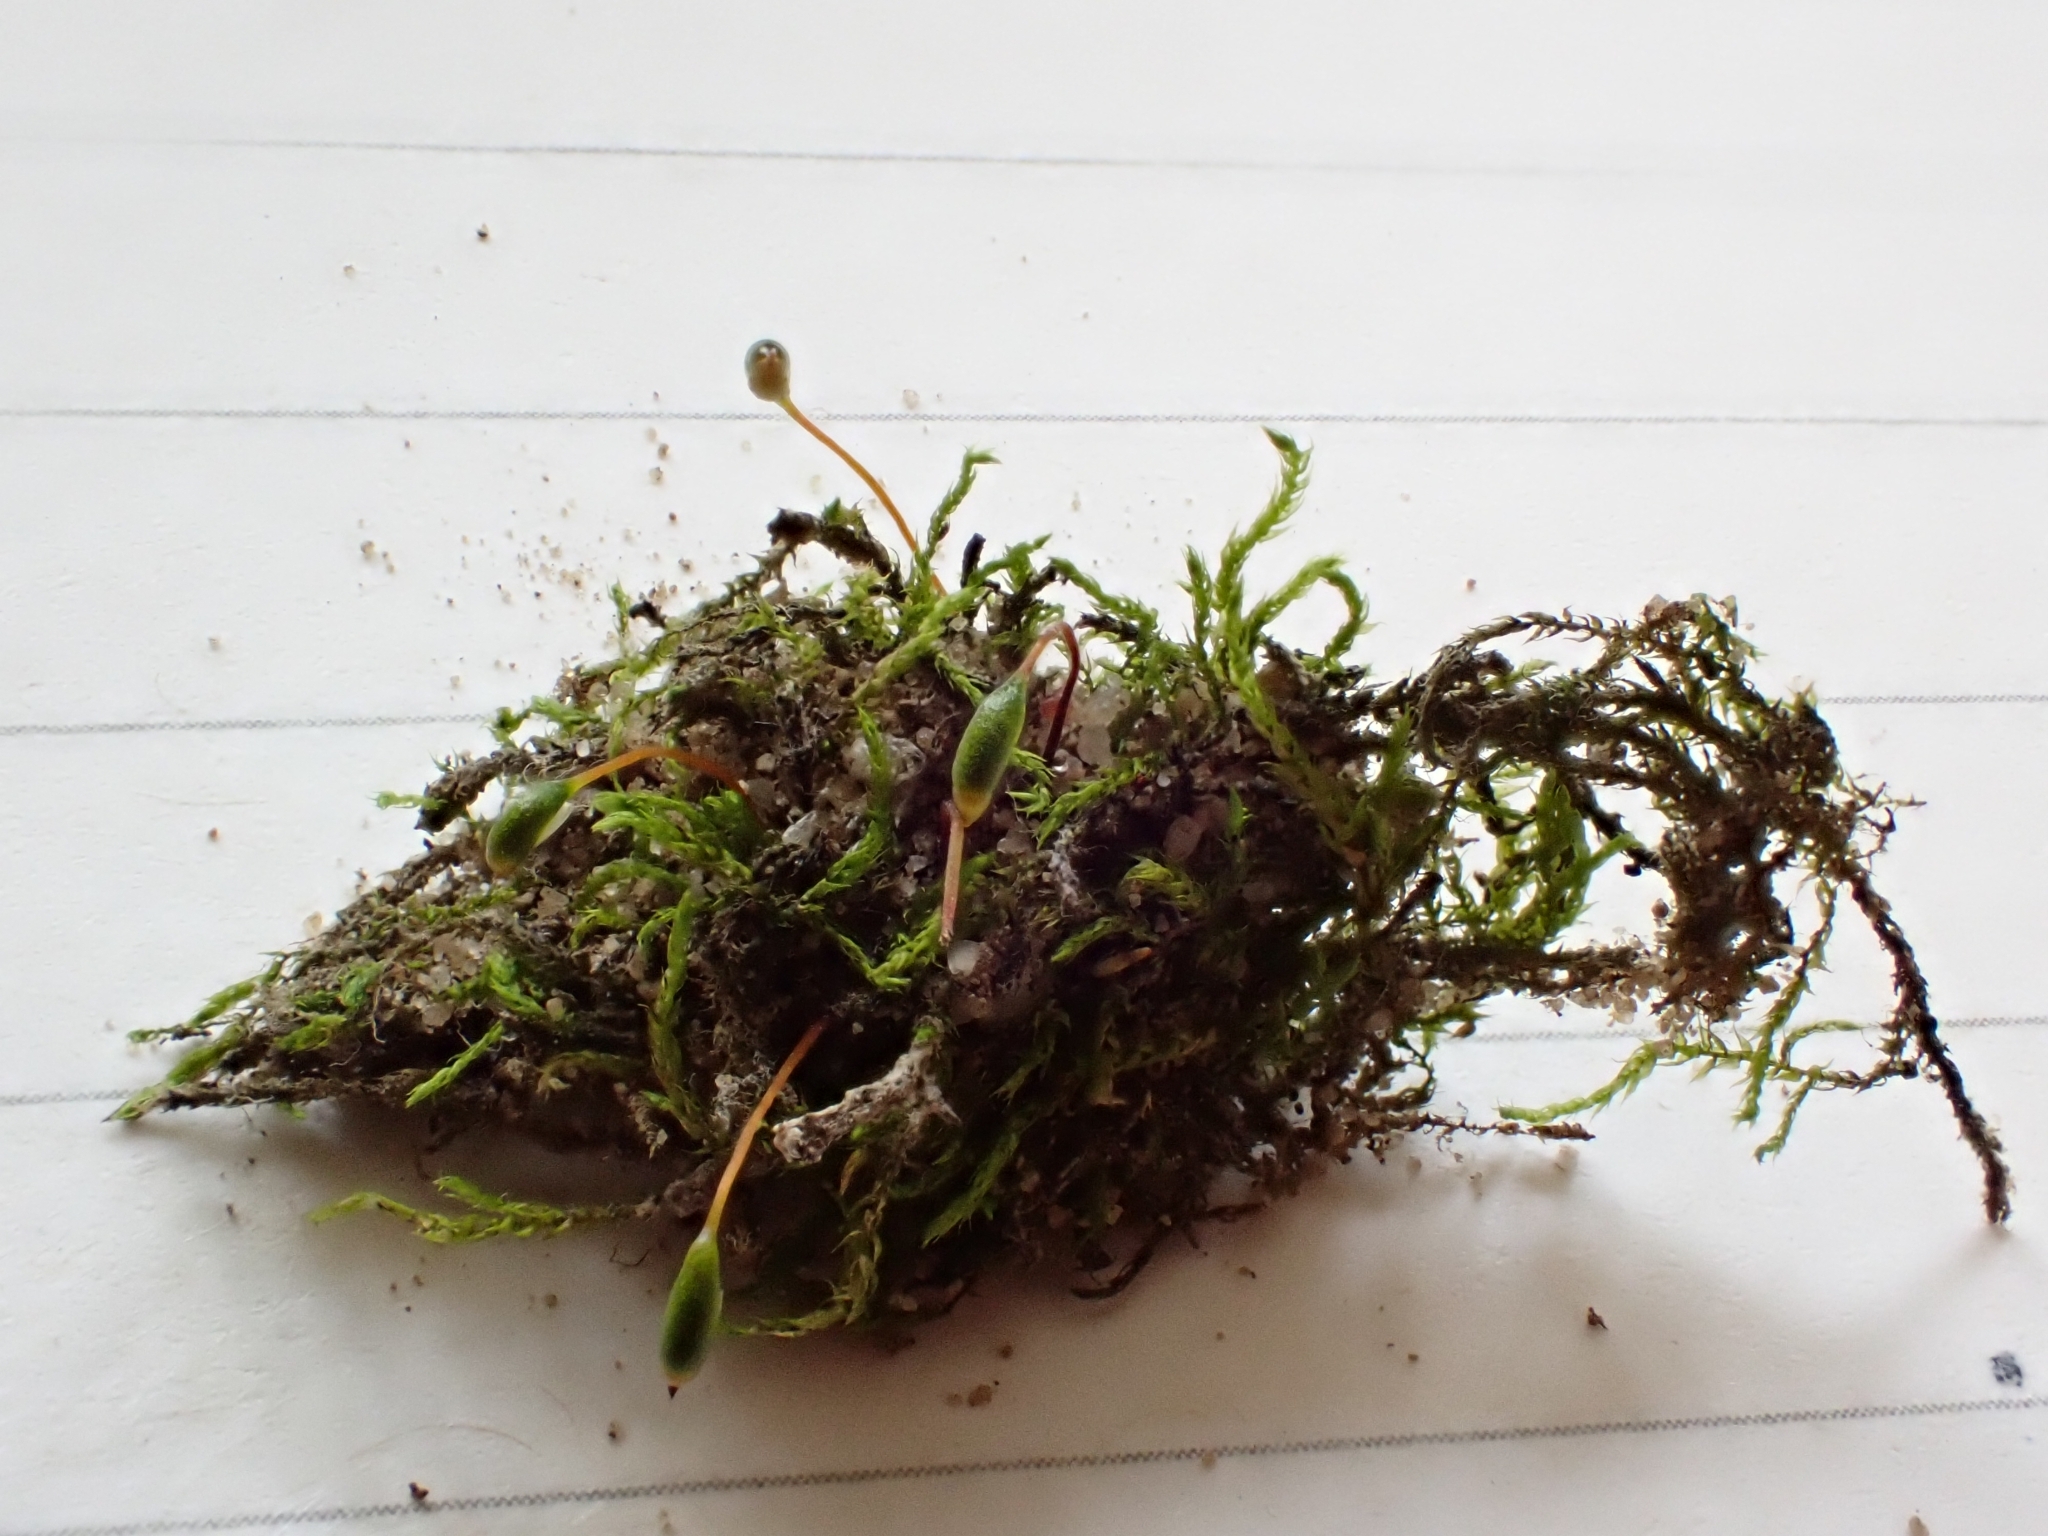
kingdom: Plantae
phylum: Bryophyta
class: Bryopsida
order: Hypnales
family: Amblystegiaceae
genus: Hygroamblystegium
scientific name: Hygroamblystegium varium
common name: Willow feather-moss
